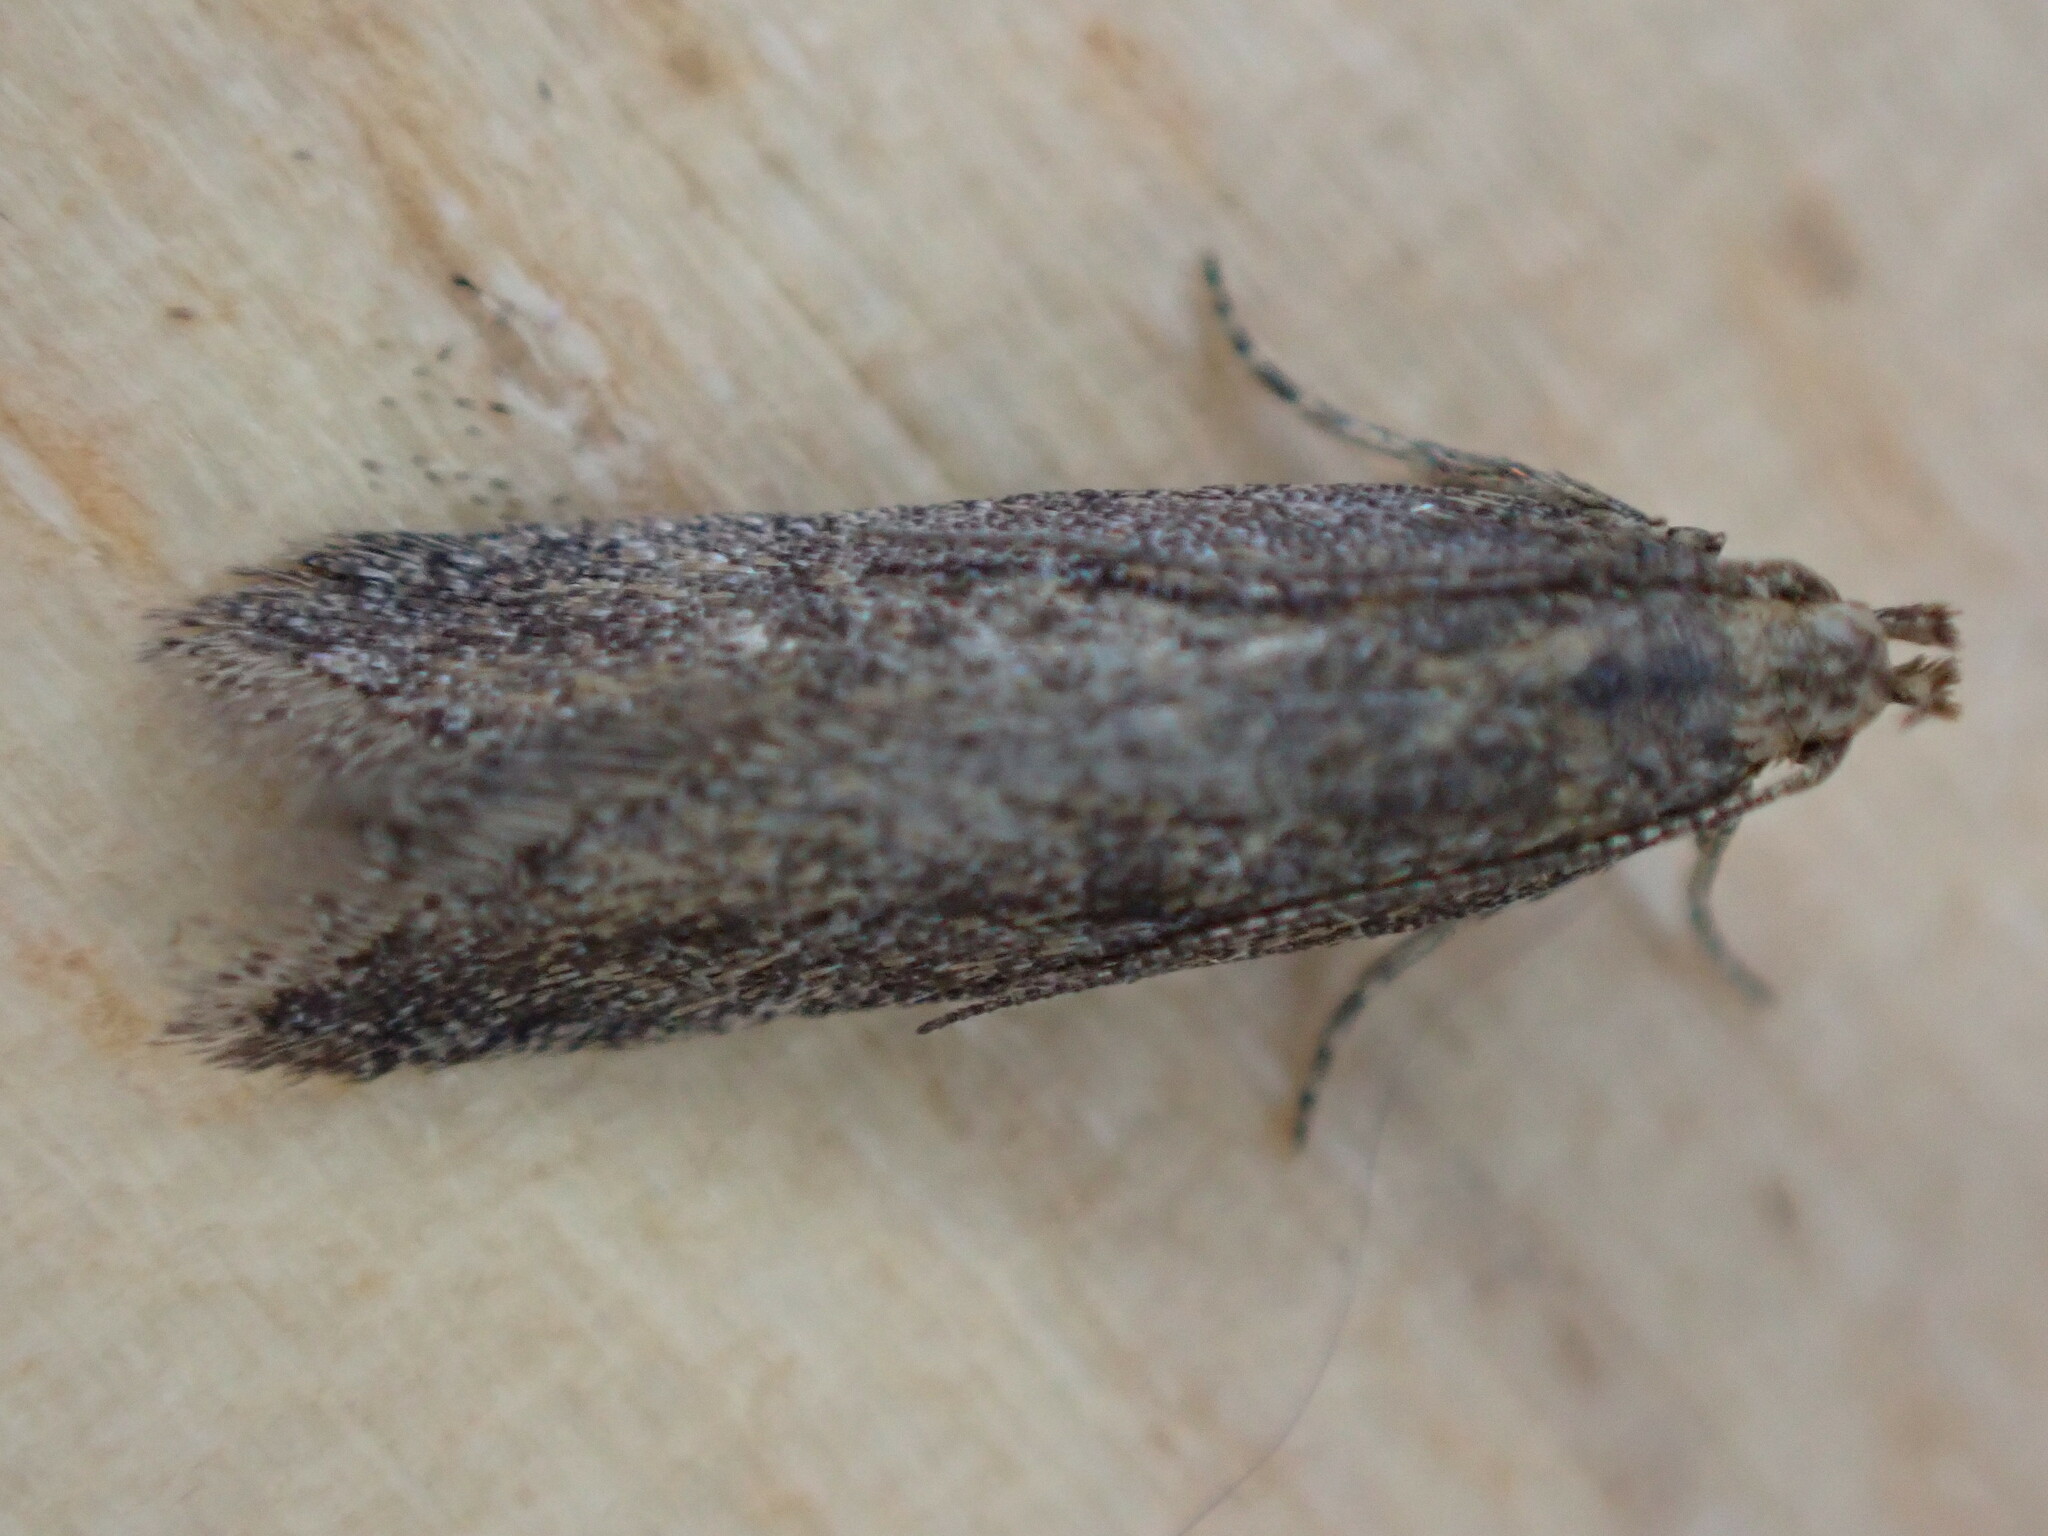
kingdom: Animalia
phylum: Arthropoda
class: Insecta
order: Lepidoptera
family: Gelechiidae
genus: Scrobipalpa
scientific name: Scrobipalpa acuminatella
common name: Pointed groundling
